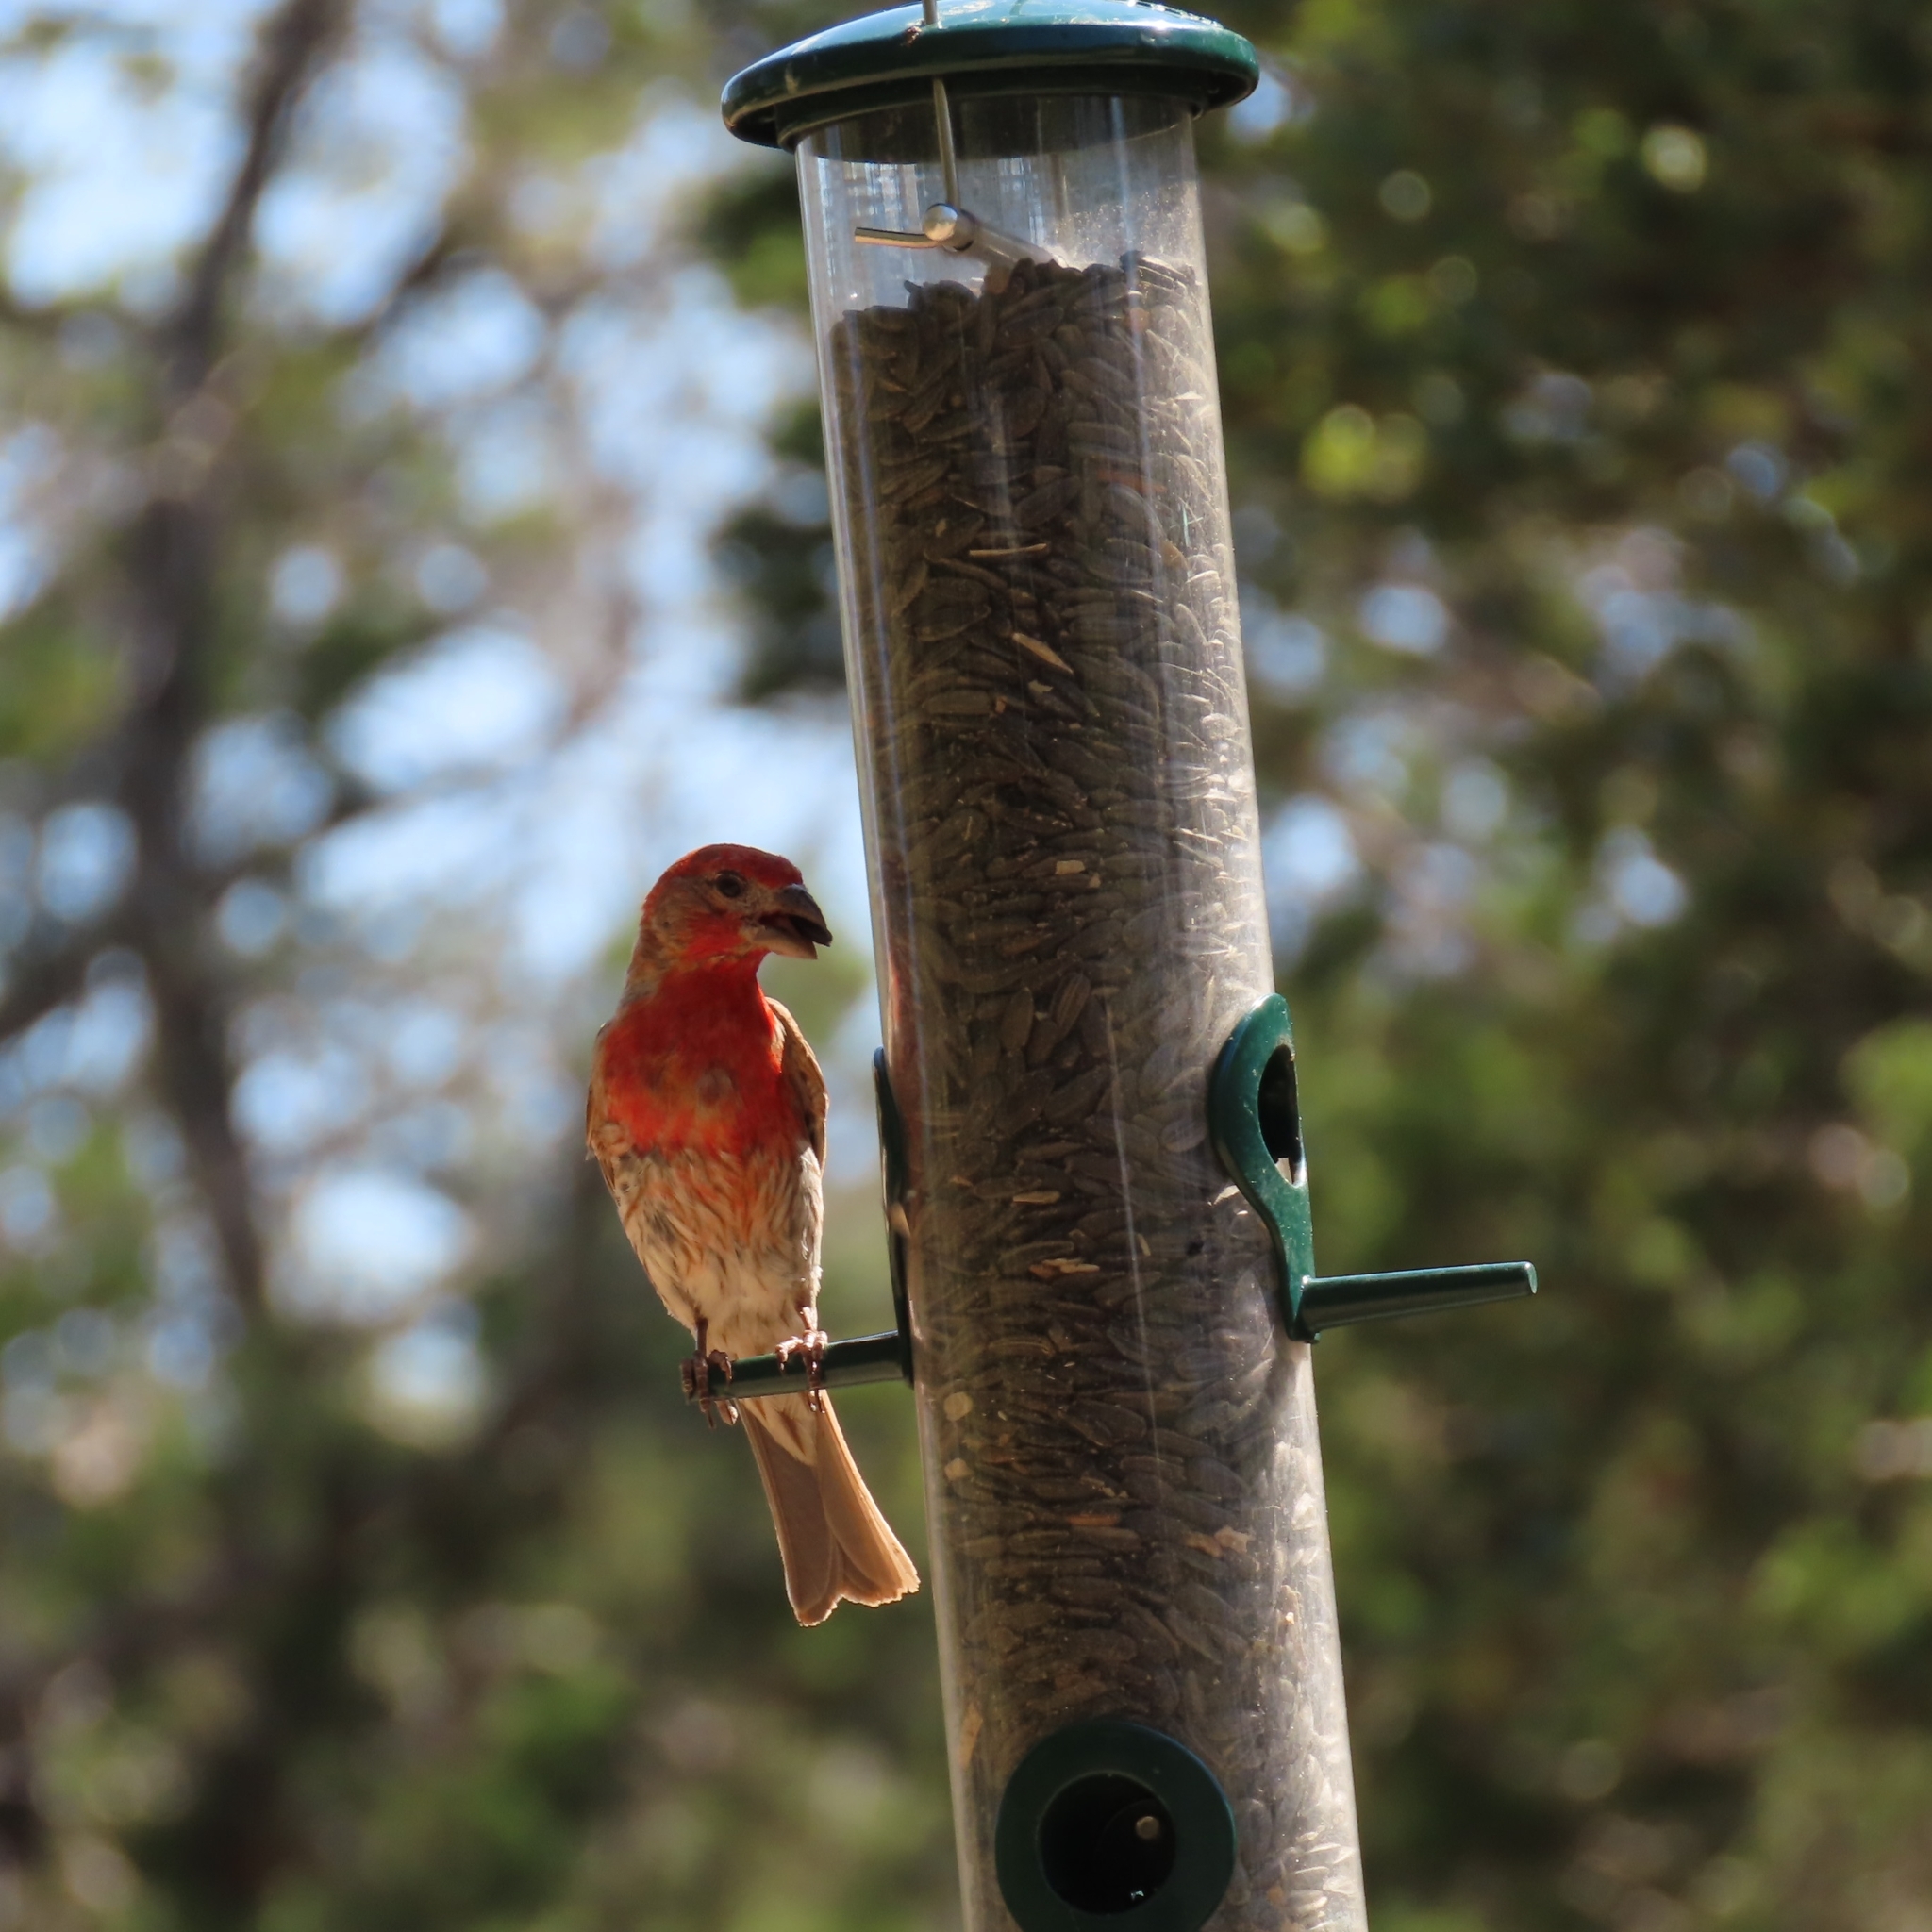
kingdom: Animalia
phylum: Chordata
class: Aves
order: Passeriformes
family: Fringillidae
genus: Haemorhous
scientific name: Haemorhous mexicanus
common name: House finch
